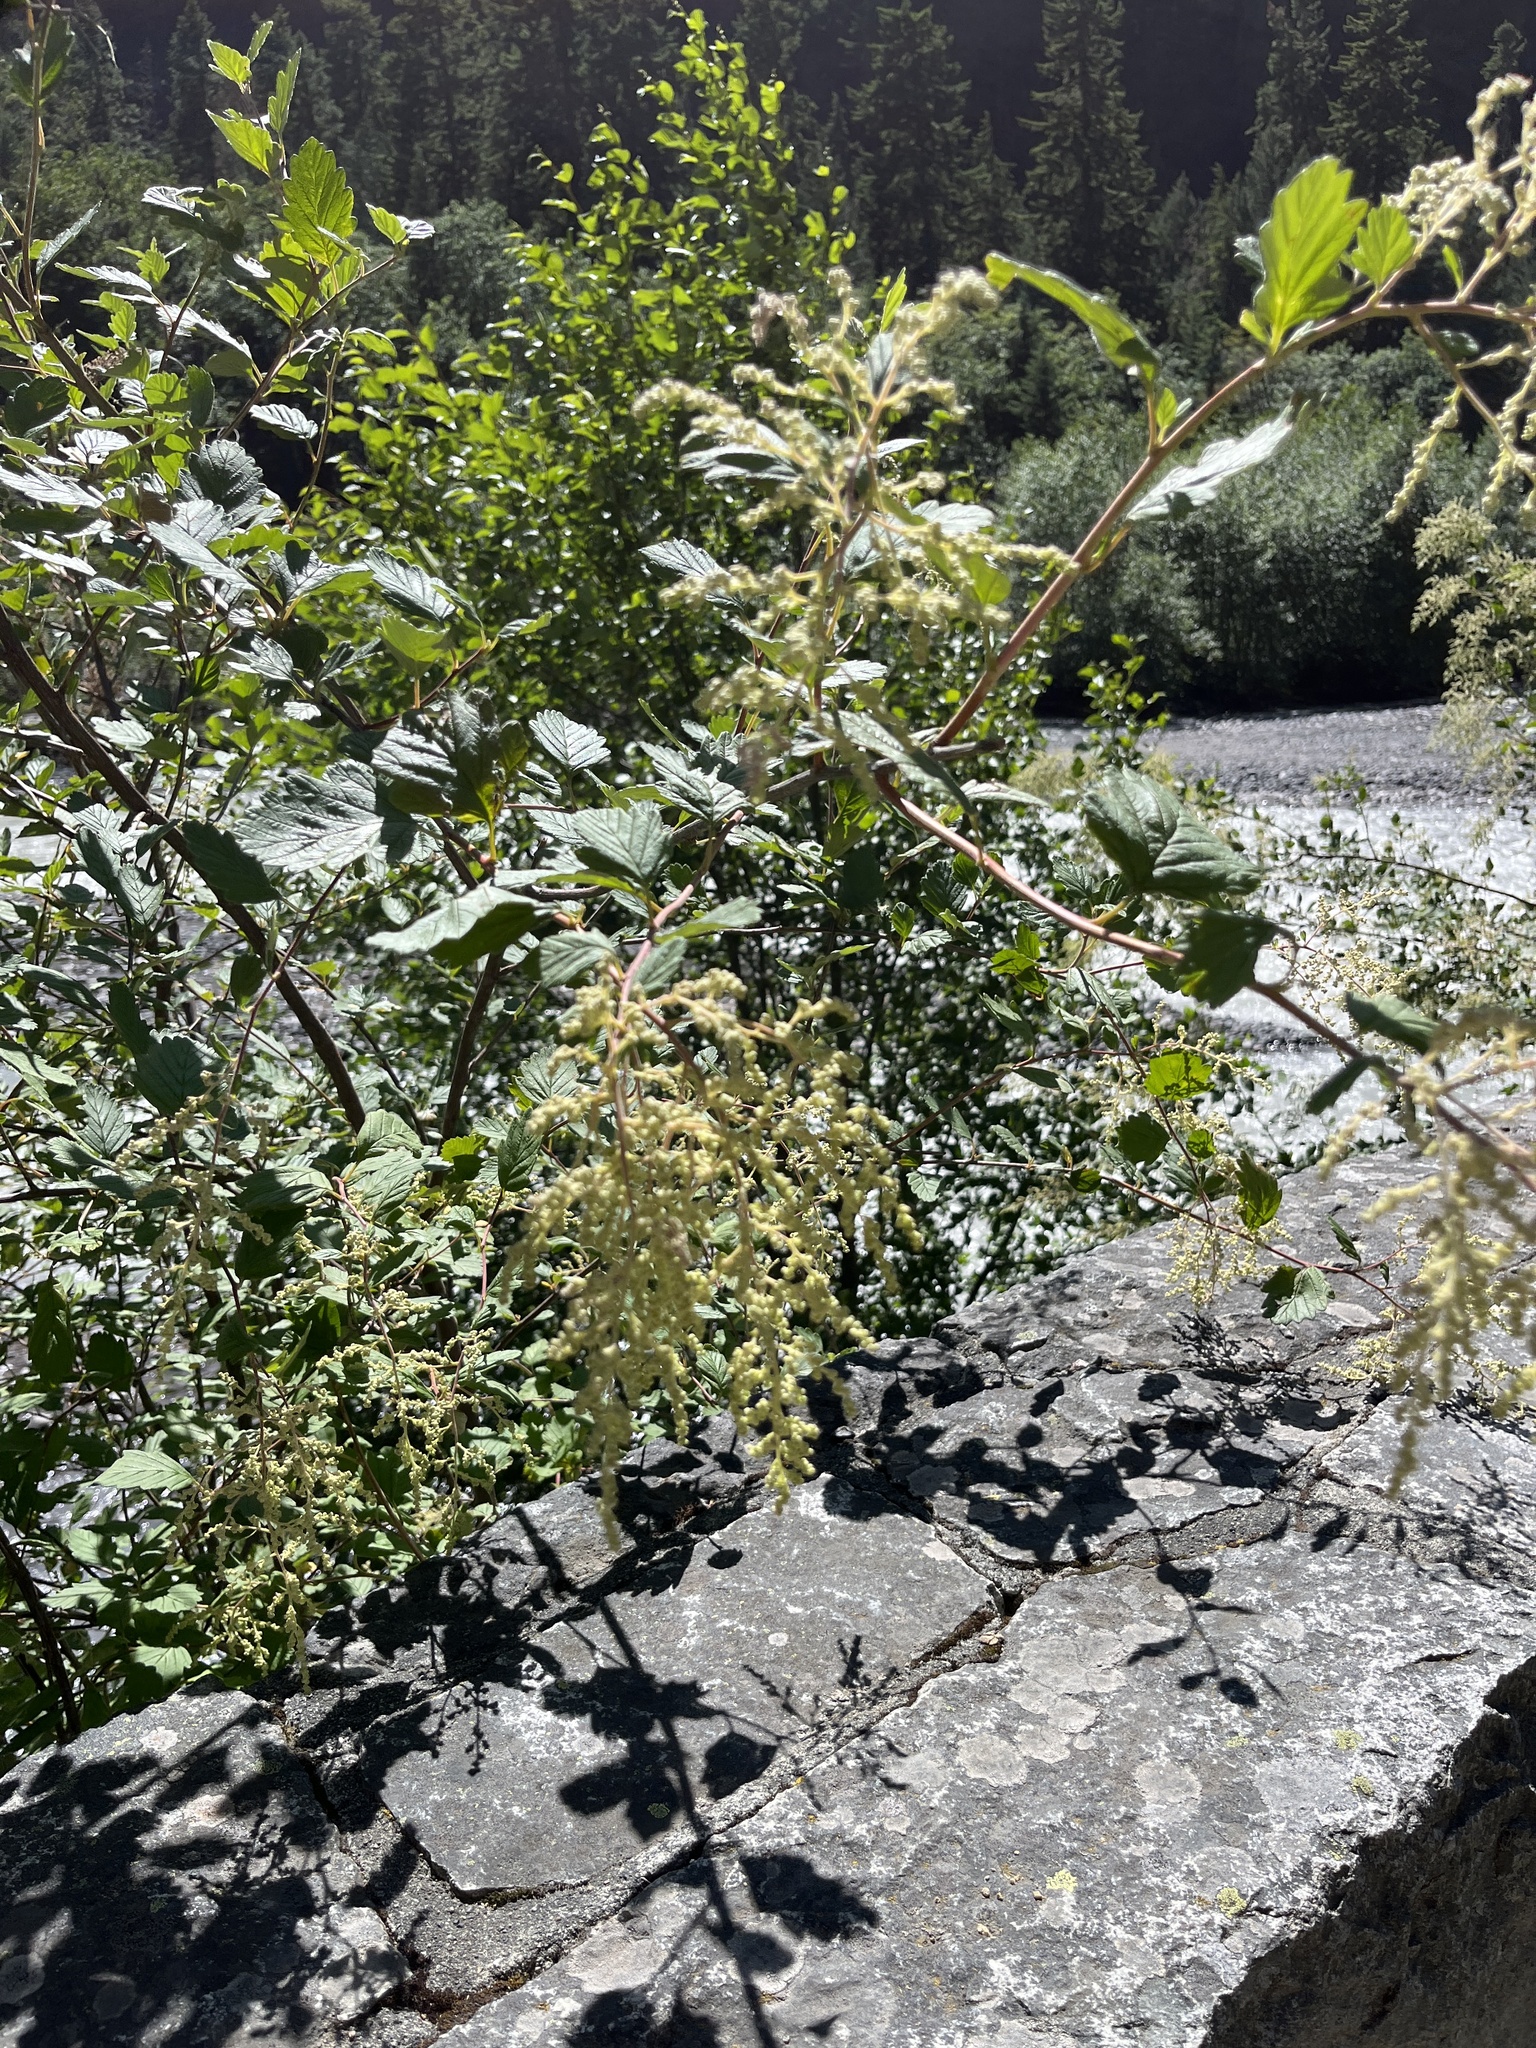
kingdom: Plantae
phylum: Tracheophyta
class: Magnoliopsida
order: Rosales
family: Rosaceae
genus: Holodiscus
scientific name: Holodiscus discolor
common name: Oceanspray
